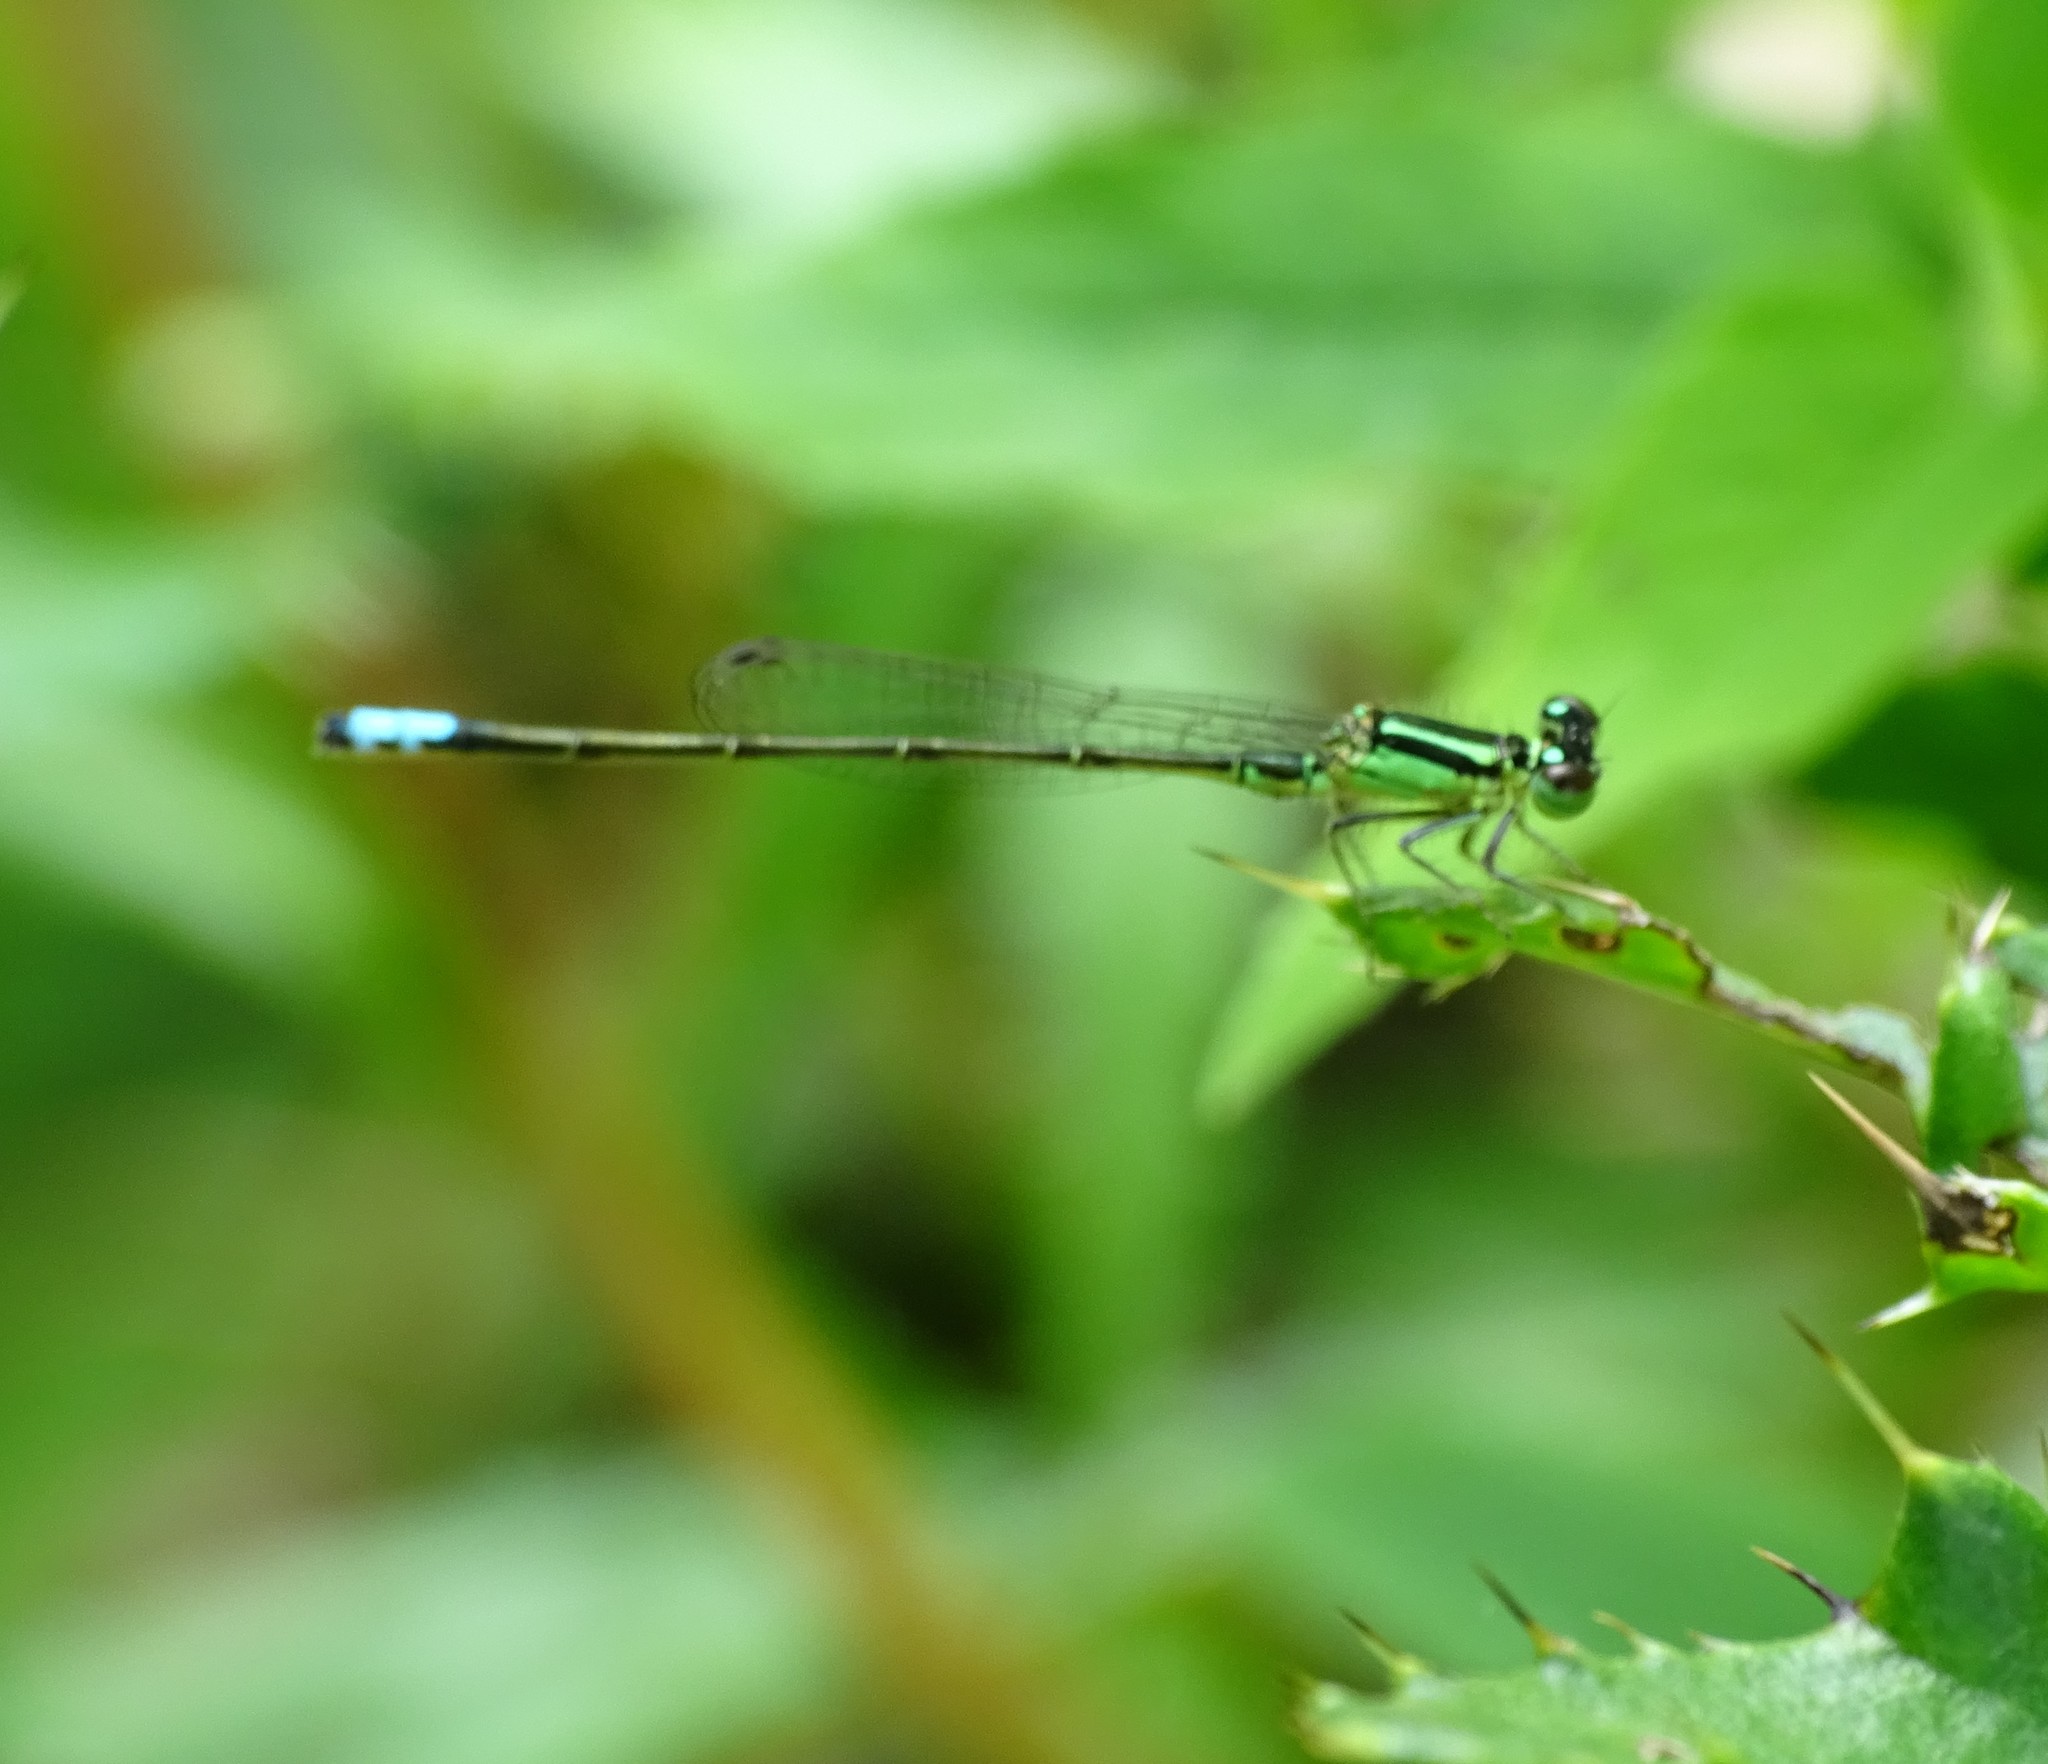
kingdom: Animalia
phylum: Arthropoda
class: Insecta
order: Odonata
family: Coenagrionidae
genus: Ischnura
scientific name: Ischnura verticalis
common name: Eastern forktail
